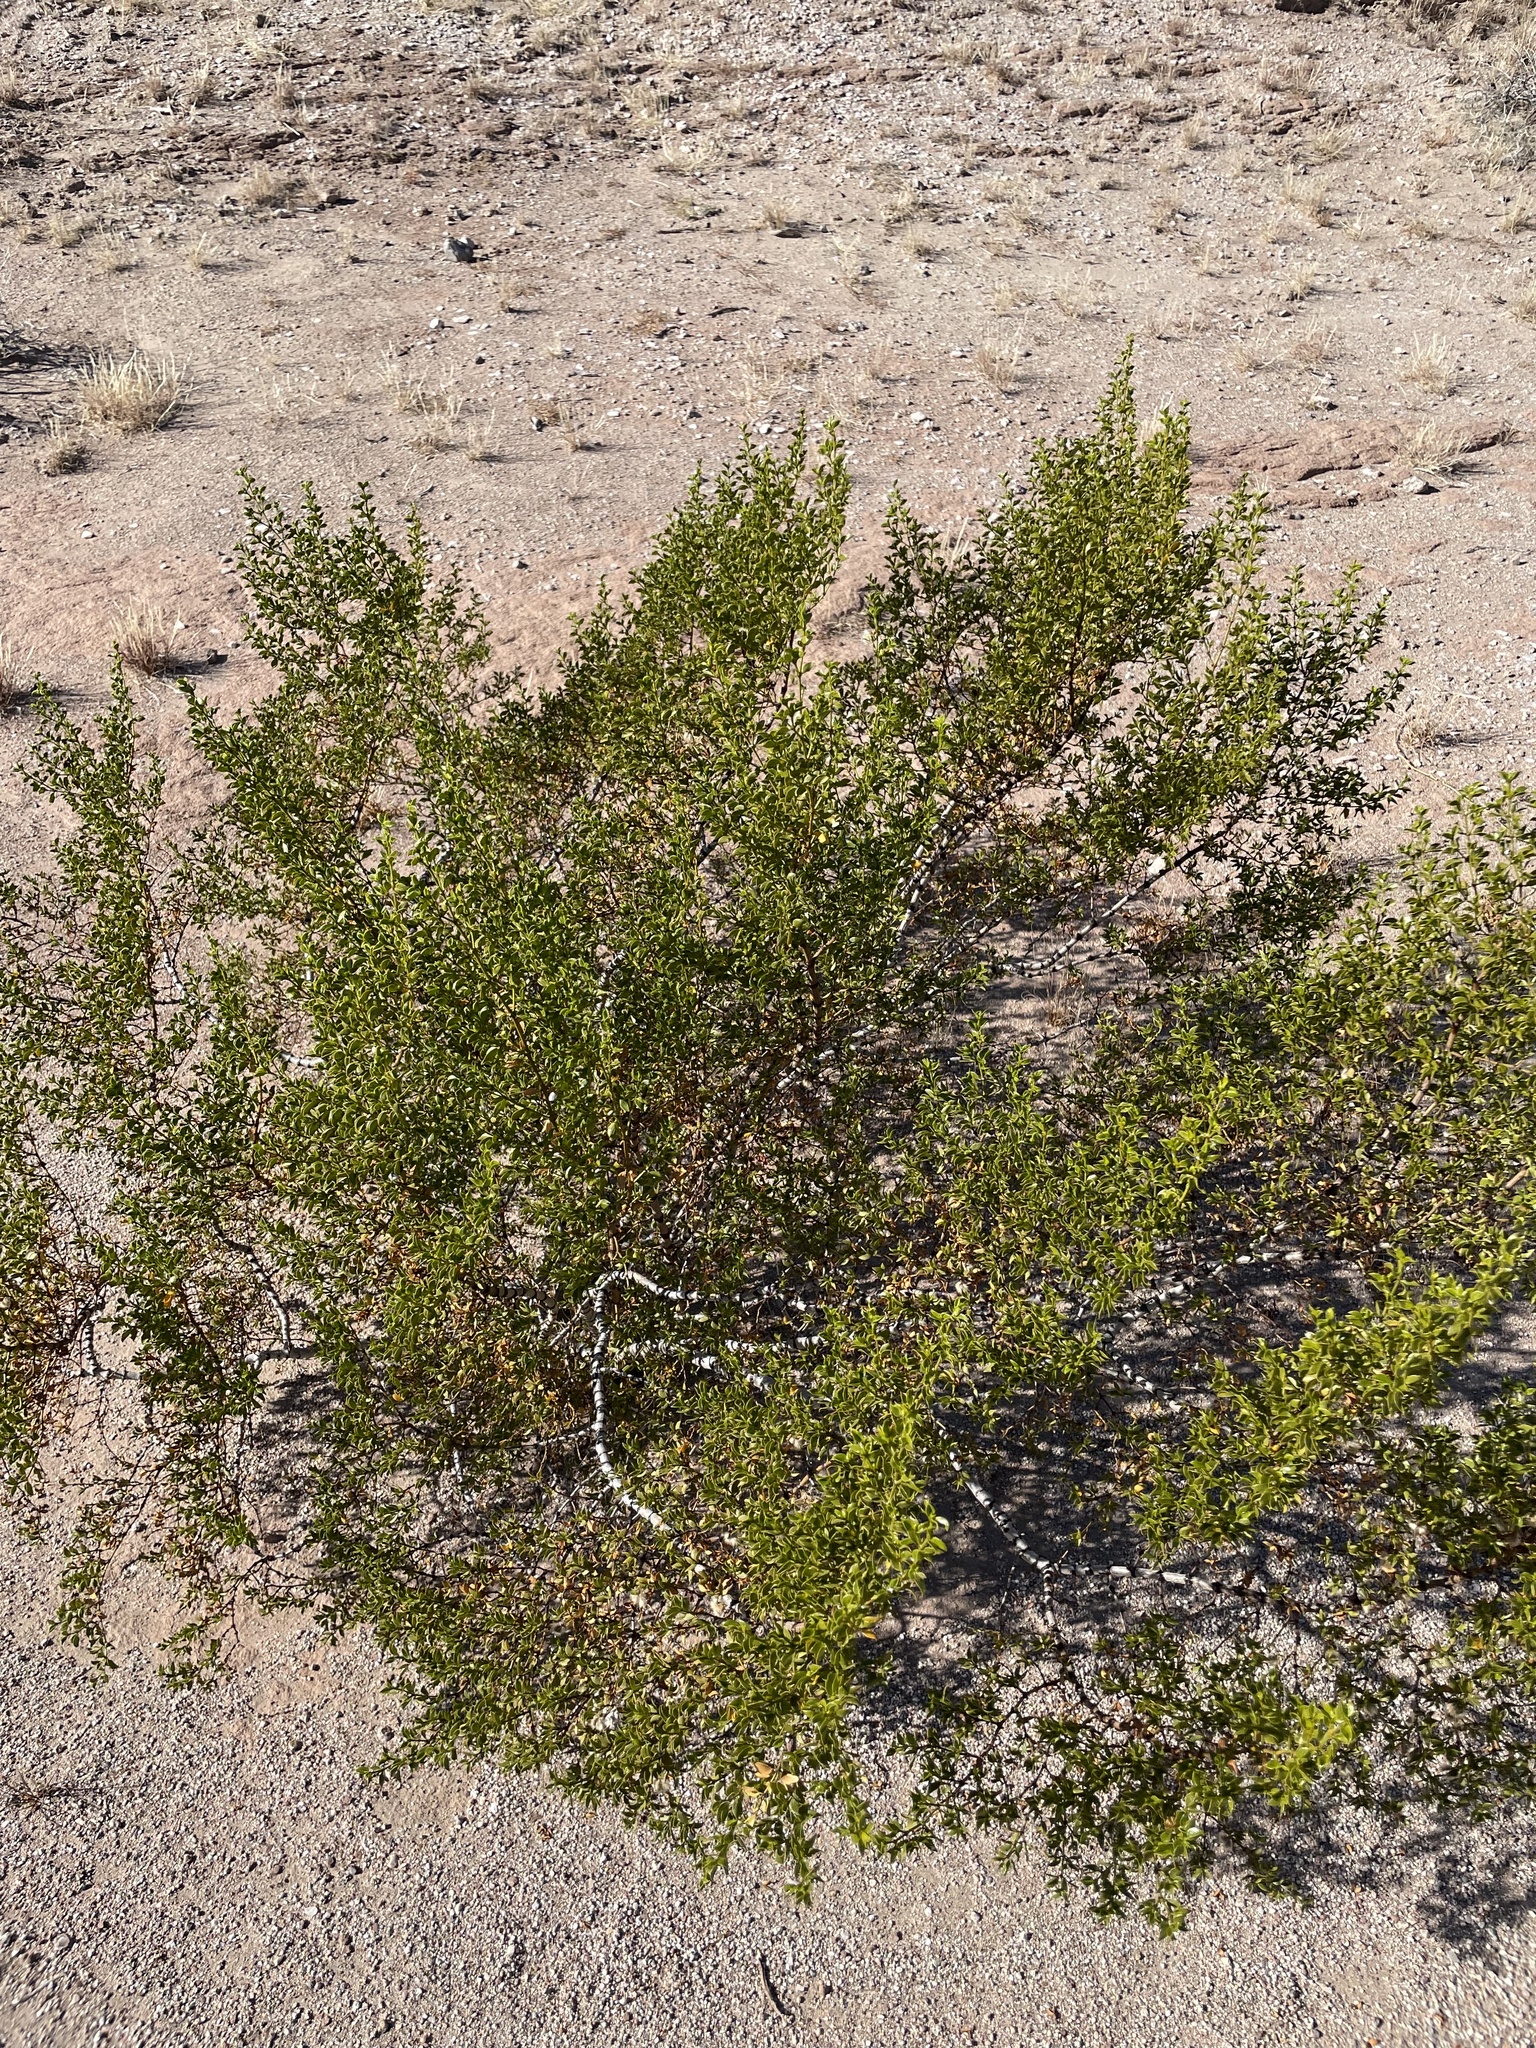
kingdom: Plantae
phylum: Tracheophyta
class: Magnoliopsida
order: Zygophyllales
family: Zygophyllaceae
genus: Larrea
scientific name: Larrea tridentata
